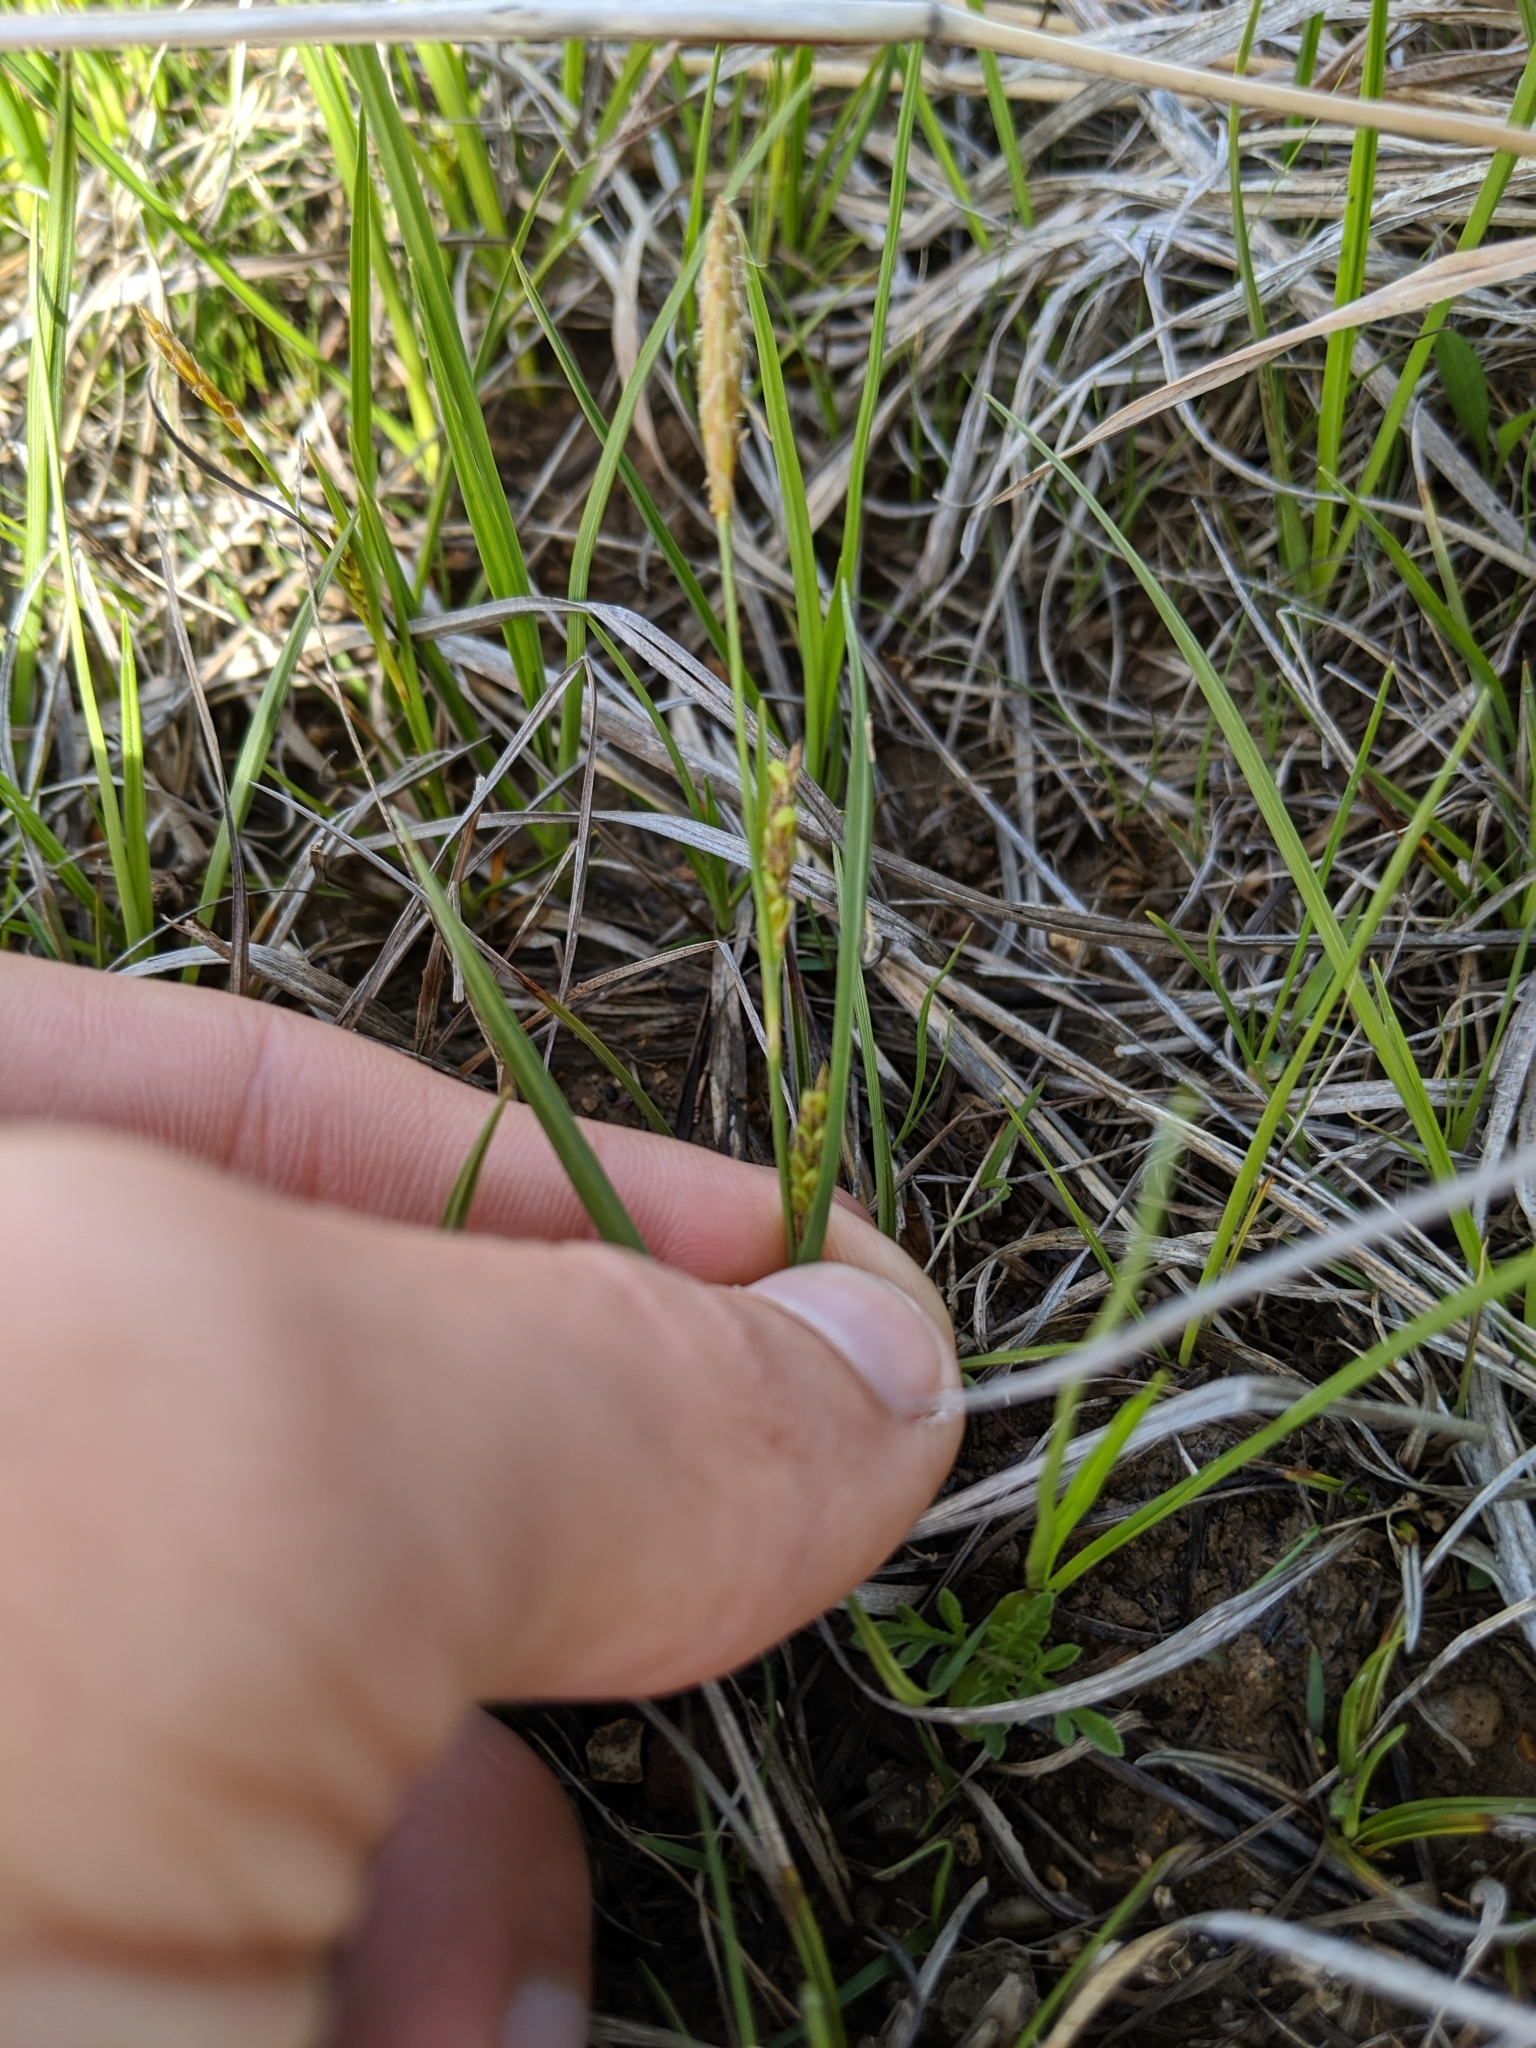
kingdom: Plantae
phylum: Tracheophyta
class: Liliopsida
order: Poales
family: Cyperaceae
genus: Carex
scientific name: Carex crawei
